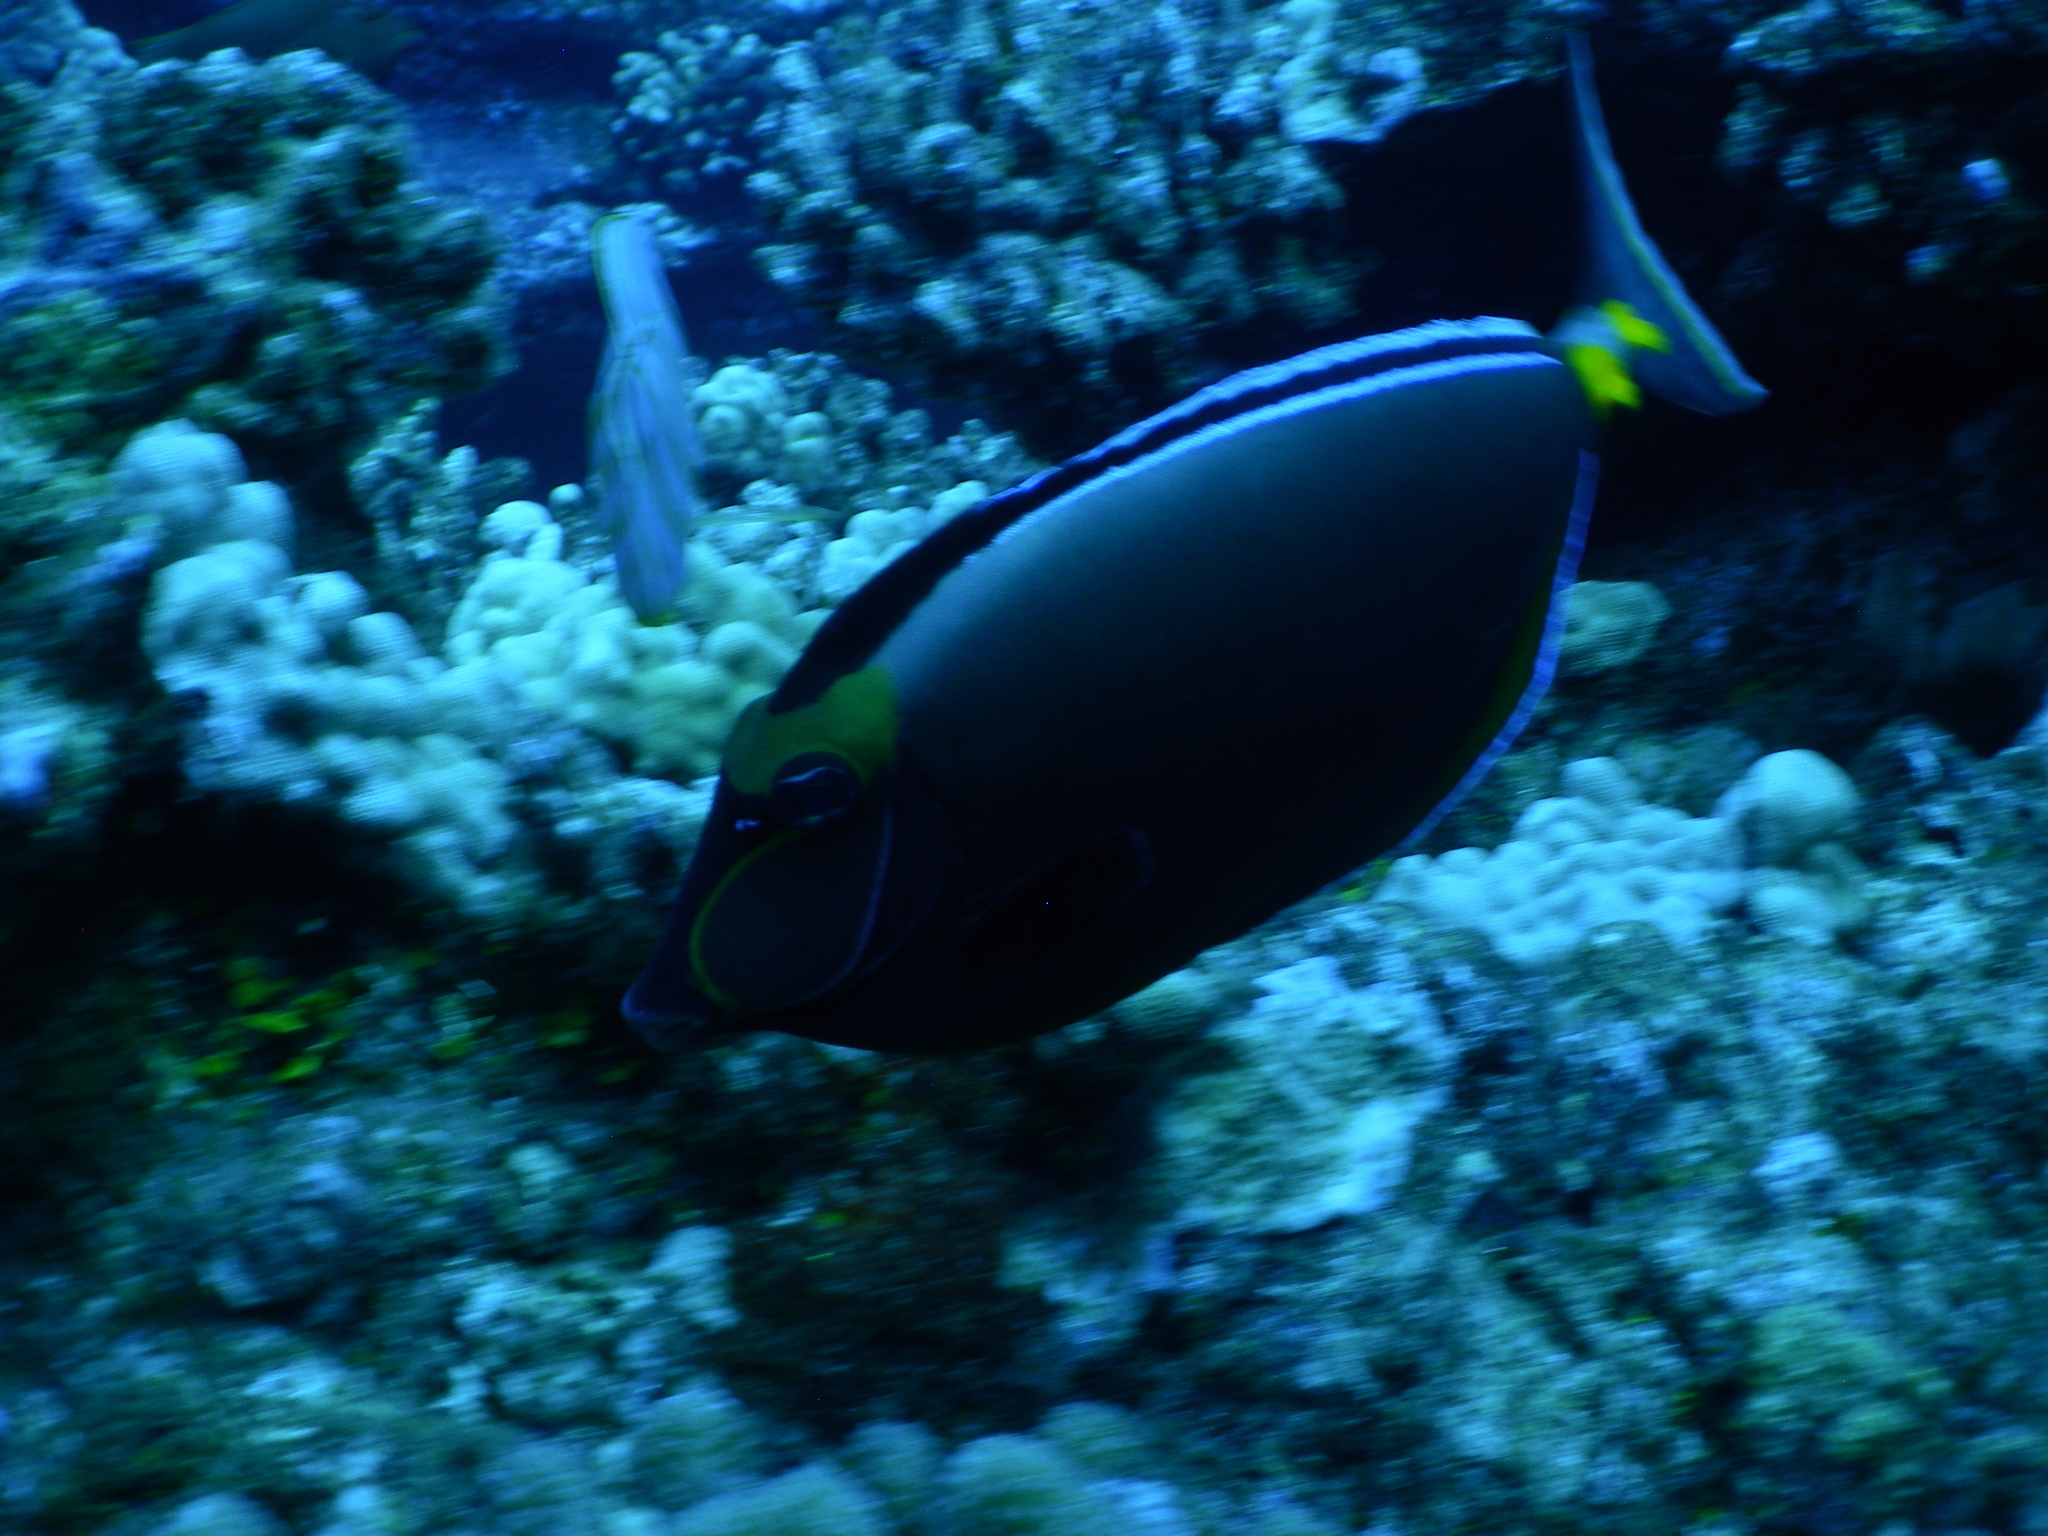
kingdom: Animalia
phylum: Chordata
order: Perciformes
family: Acanthuridae
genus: Naso
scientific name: Naso lituratus
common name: Orangespine unicornfish
